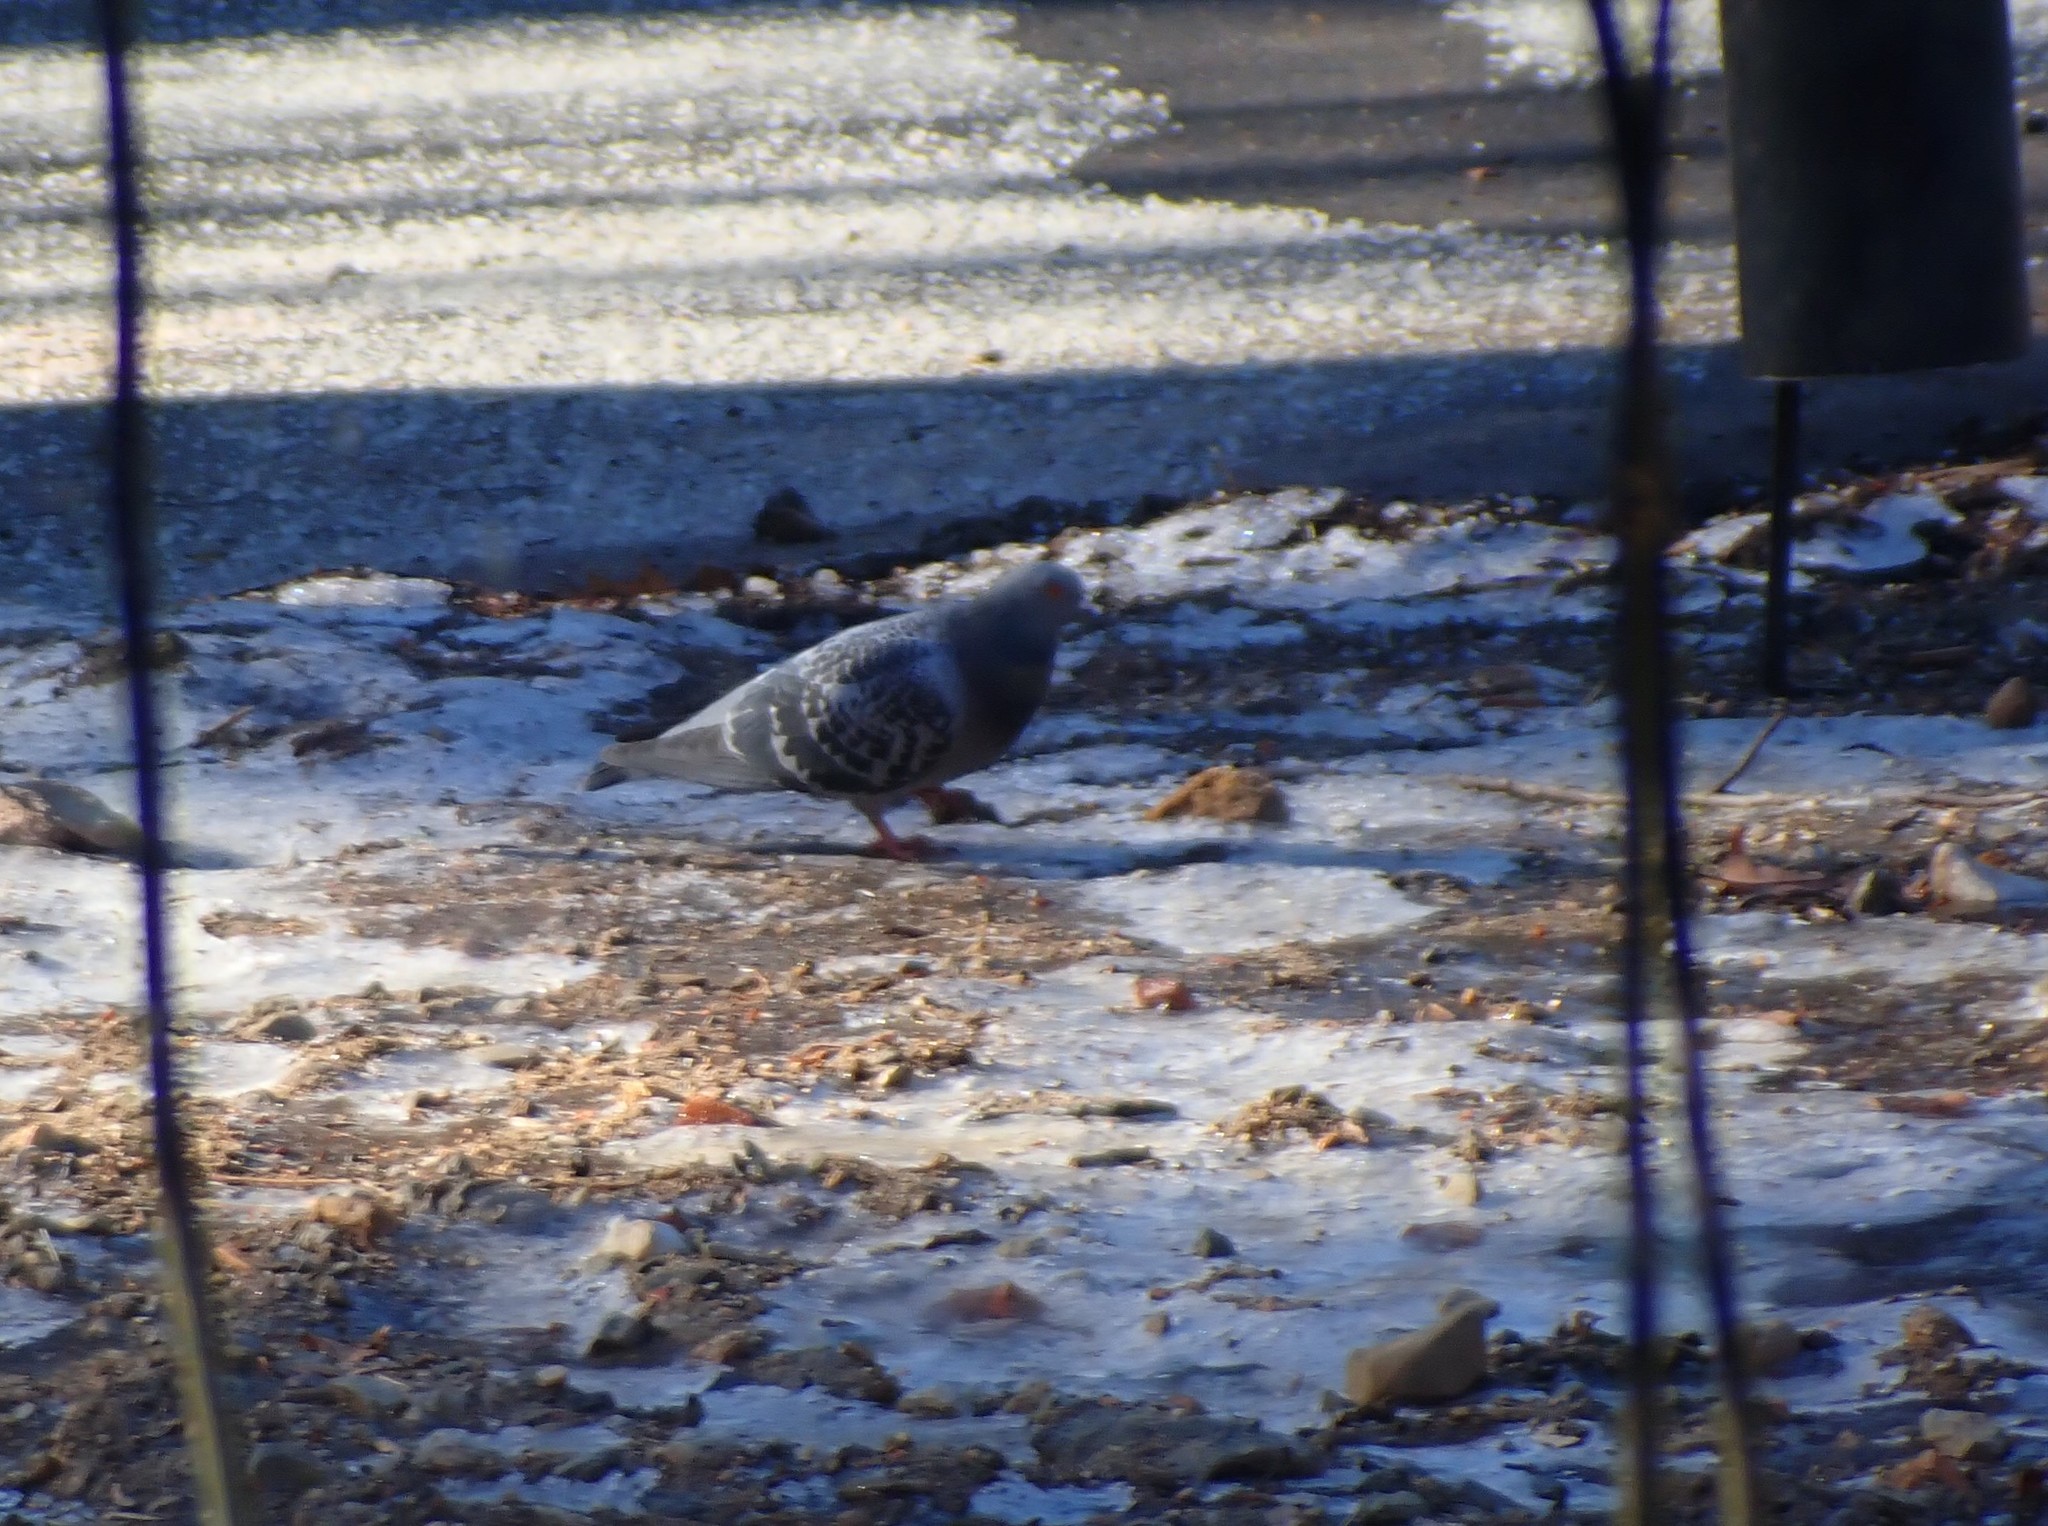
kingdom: Animalia
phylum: Chordata
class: Aves
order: Columbiformes
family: Columbidae
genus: Columba
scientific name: Columba livia
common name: Rock pigeon
